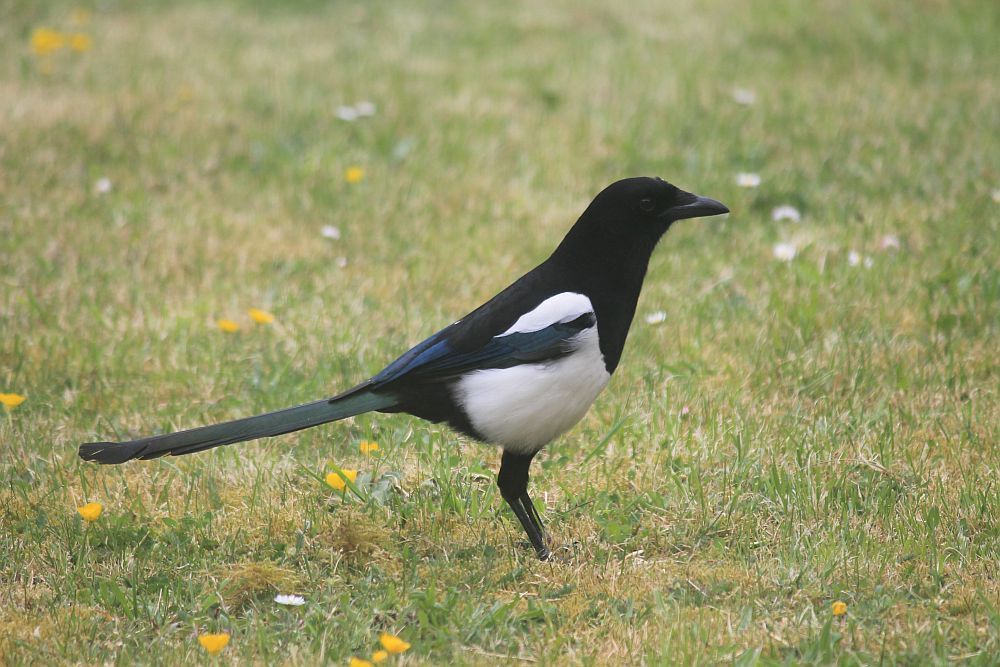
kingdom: Animalia
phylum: Chordata
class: Aves
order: Passeriformes
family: Corvidae
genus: Pica
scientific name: Pica pica
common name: Eurasian magpie
